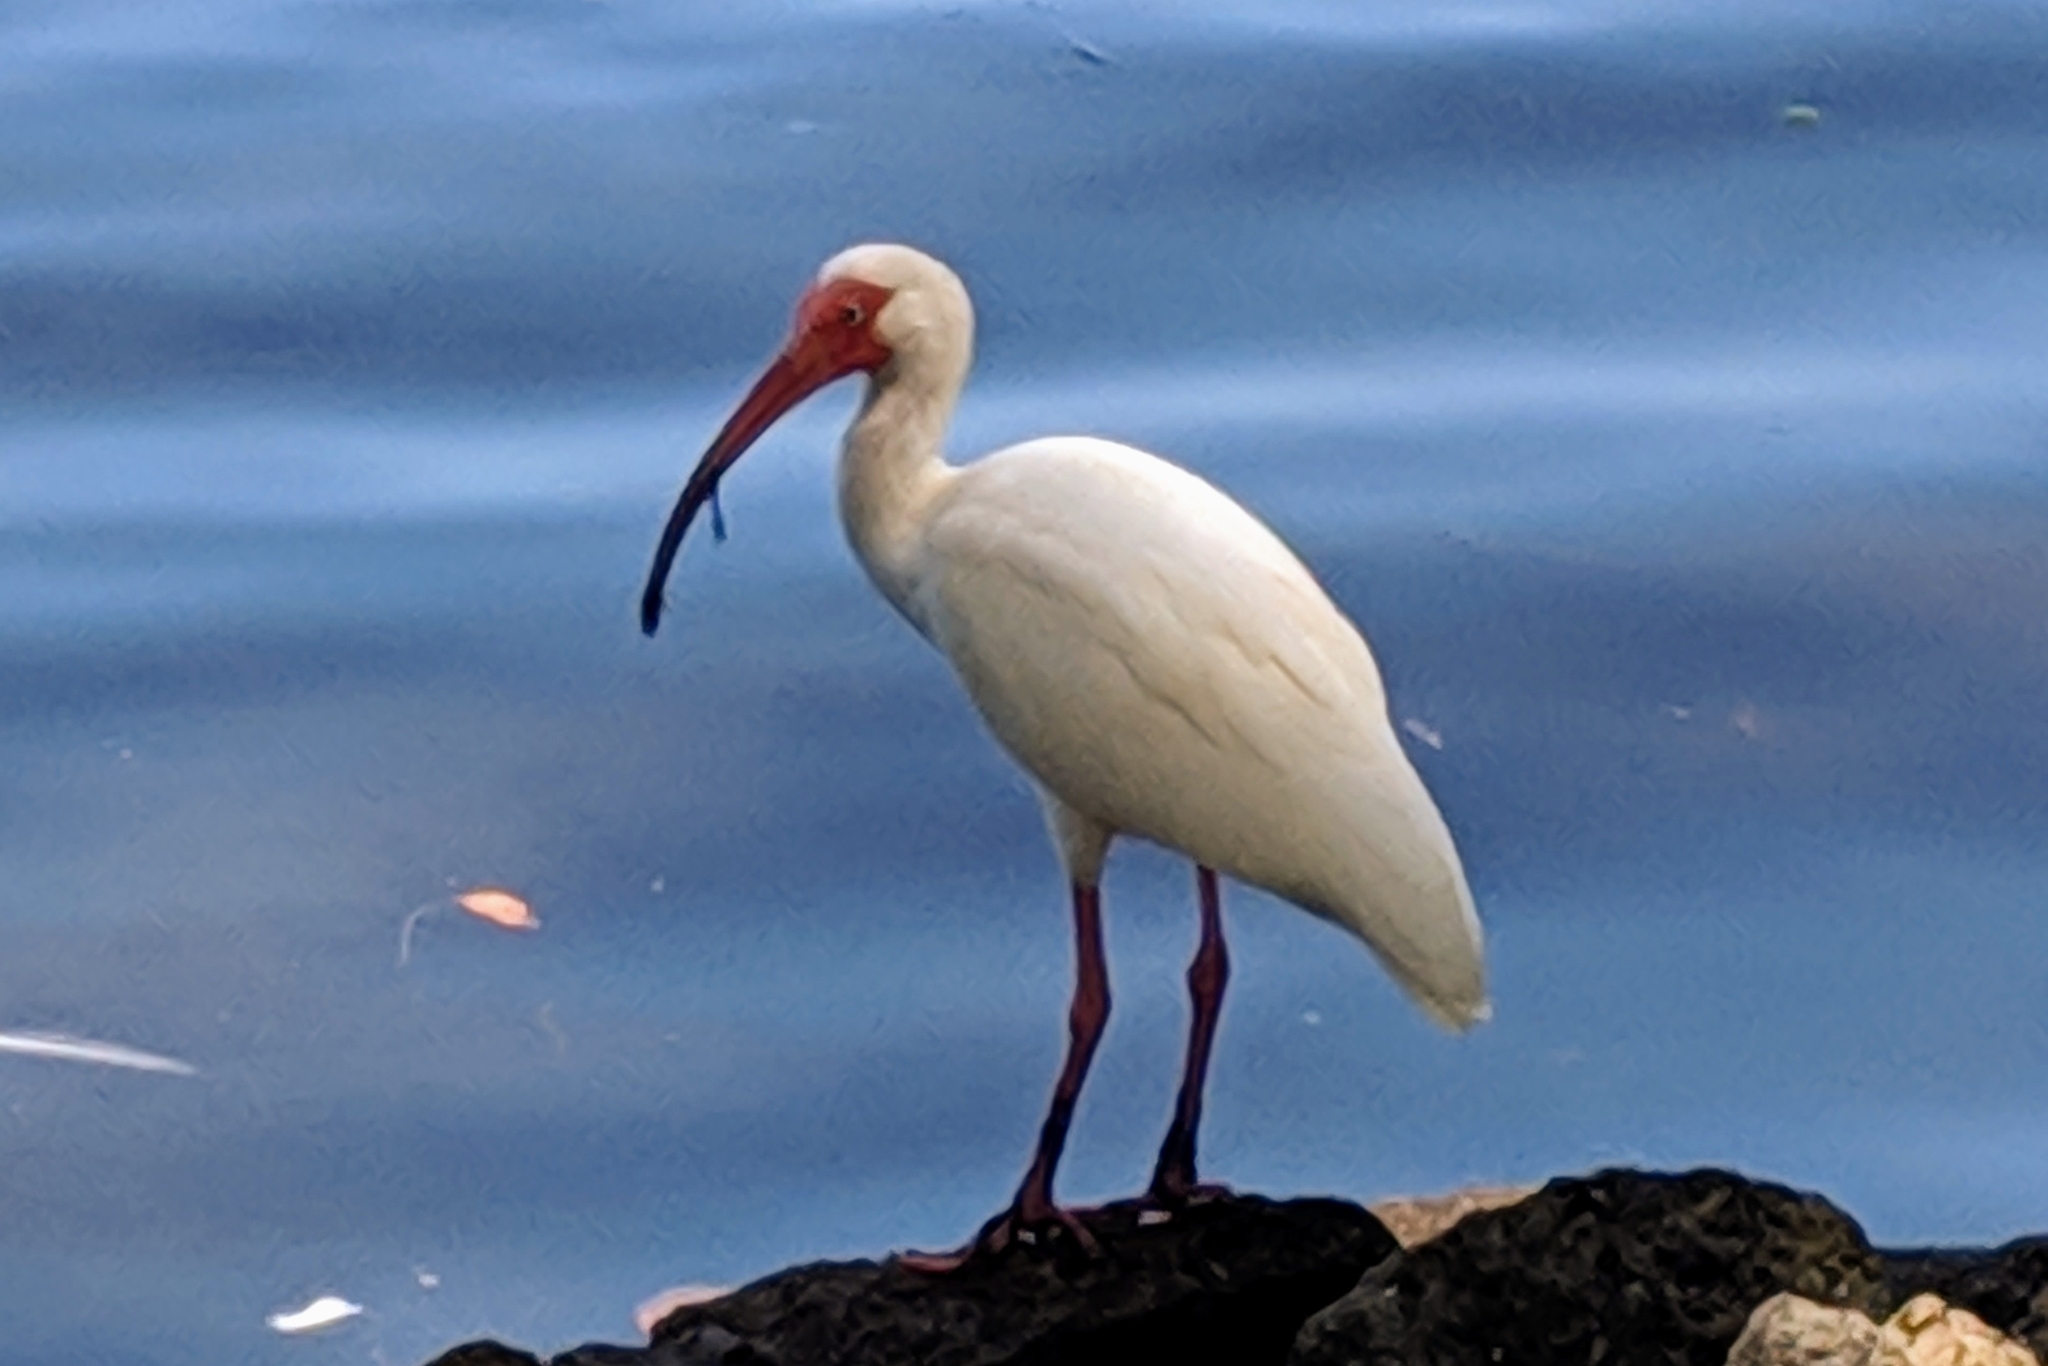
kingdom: Animalia
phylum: Chordata
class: Aves
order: Pelecaniformes
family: Threskiornithidae
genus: Eudocimus
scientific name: Eudocimus albus
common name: White ibis
